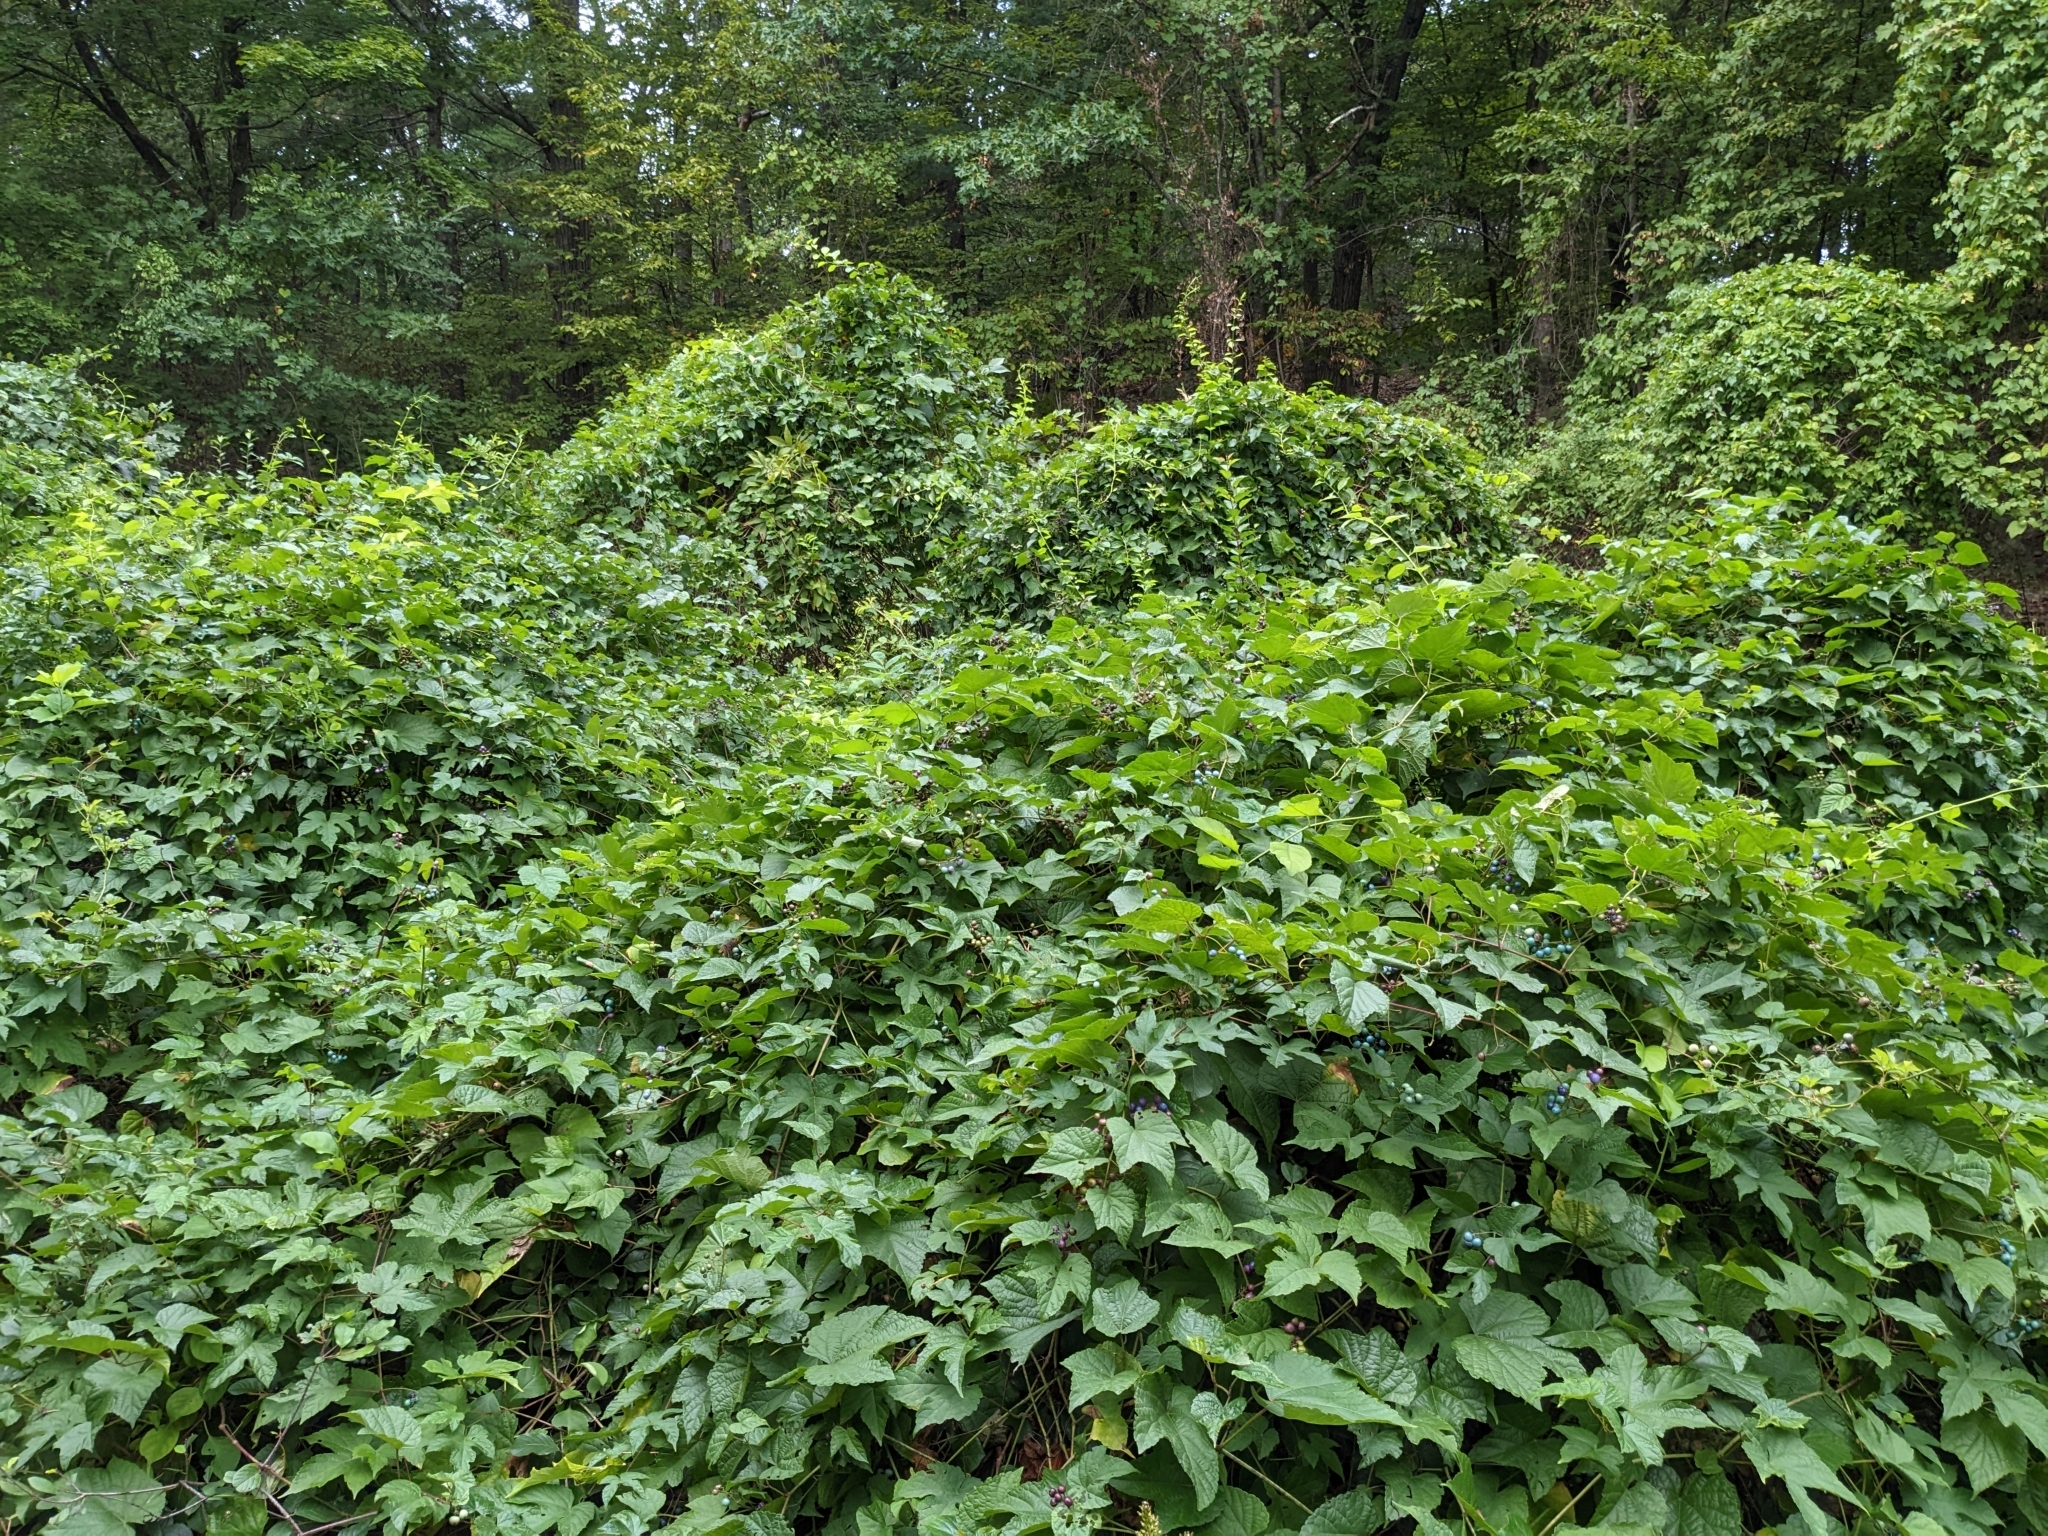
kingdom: Plantae
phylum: Tracheophyta
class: Magnoliopsida
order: Vitales
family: Vitaceae
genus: Ampelopsis
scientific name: Ampelopsis glandulosa
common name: Amur peppervine
